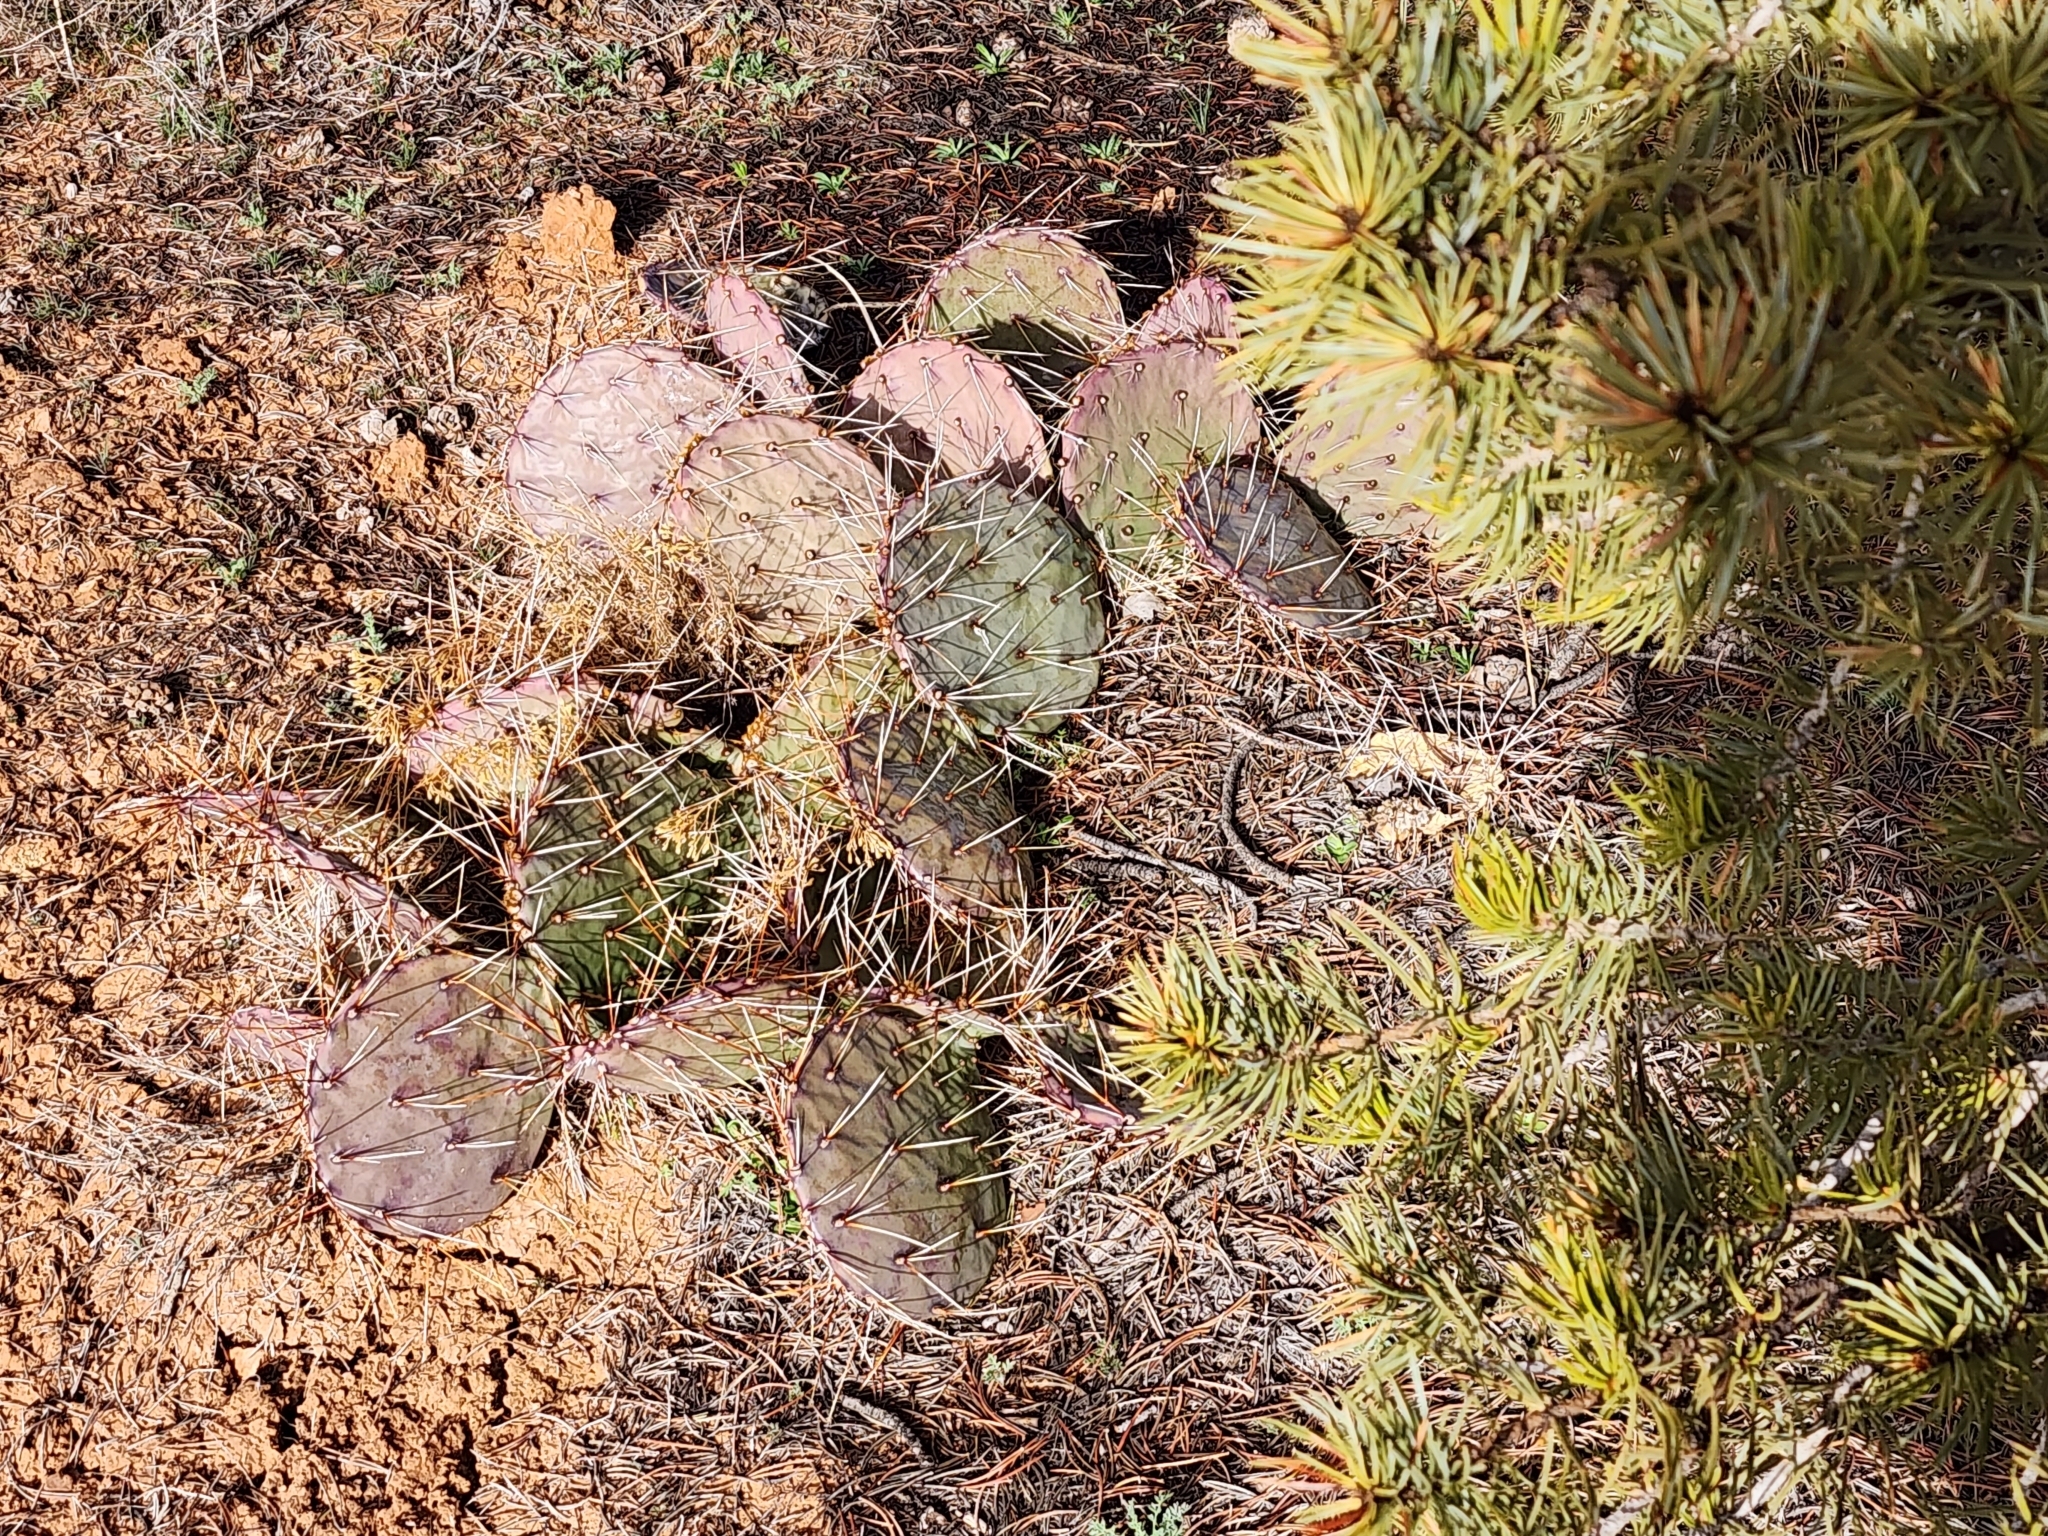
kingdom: Plantae
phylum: Tracheophyta
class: Magnoliopsida
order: Caryophyllales
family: Cactaceae
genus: Opuntia
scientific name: Opuntia phaeacantha
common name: New mexico prickly-pear
